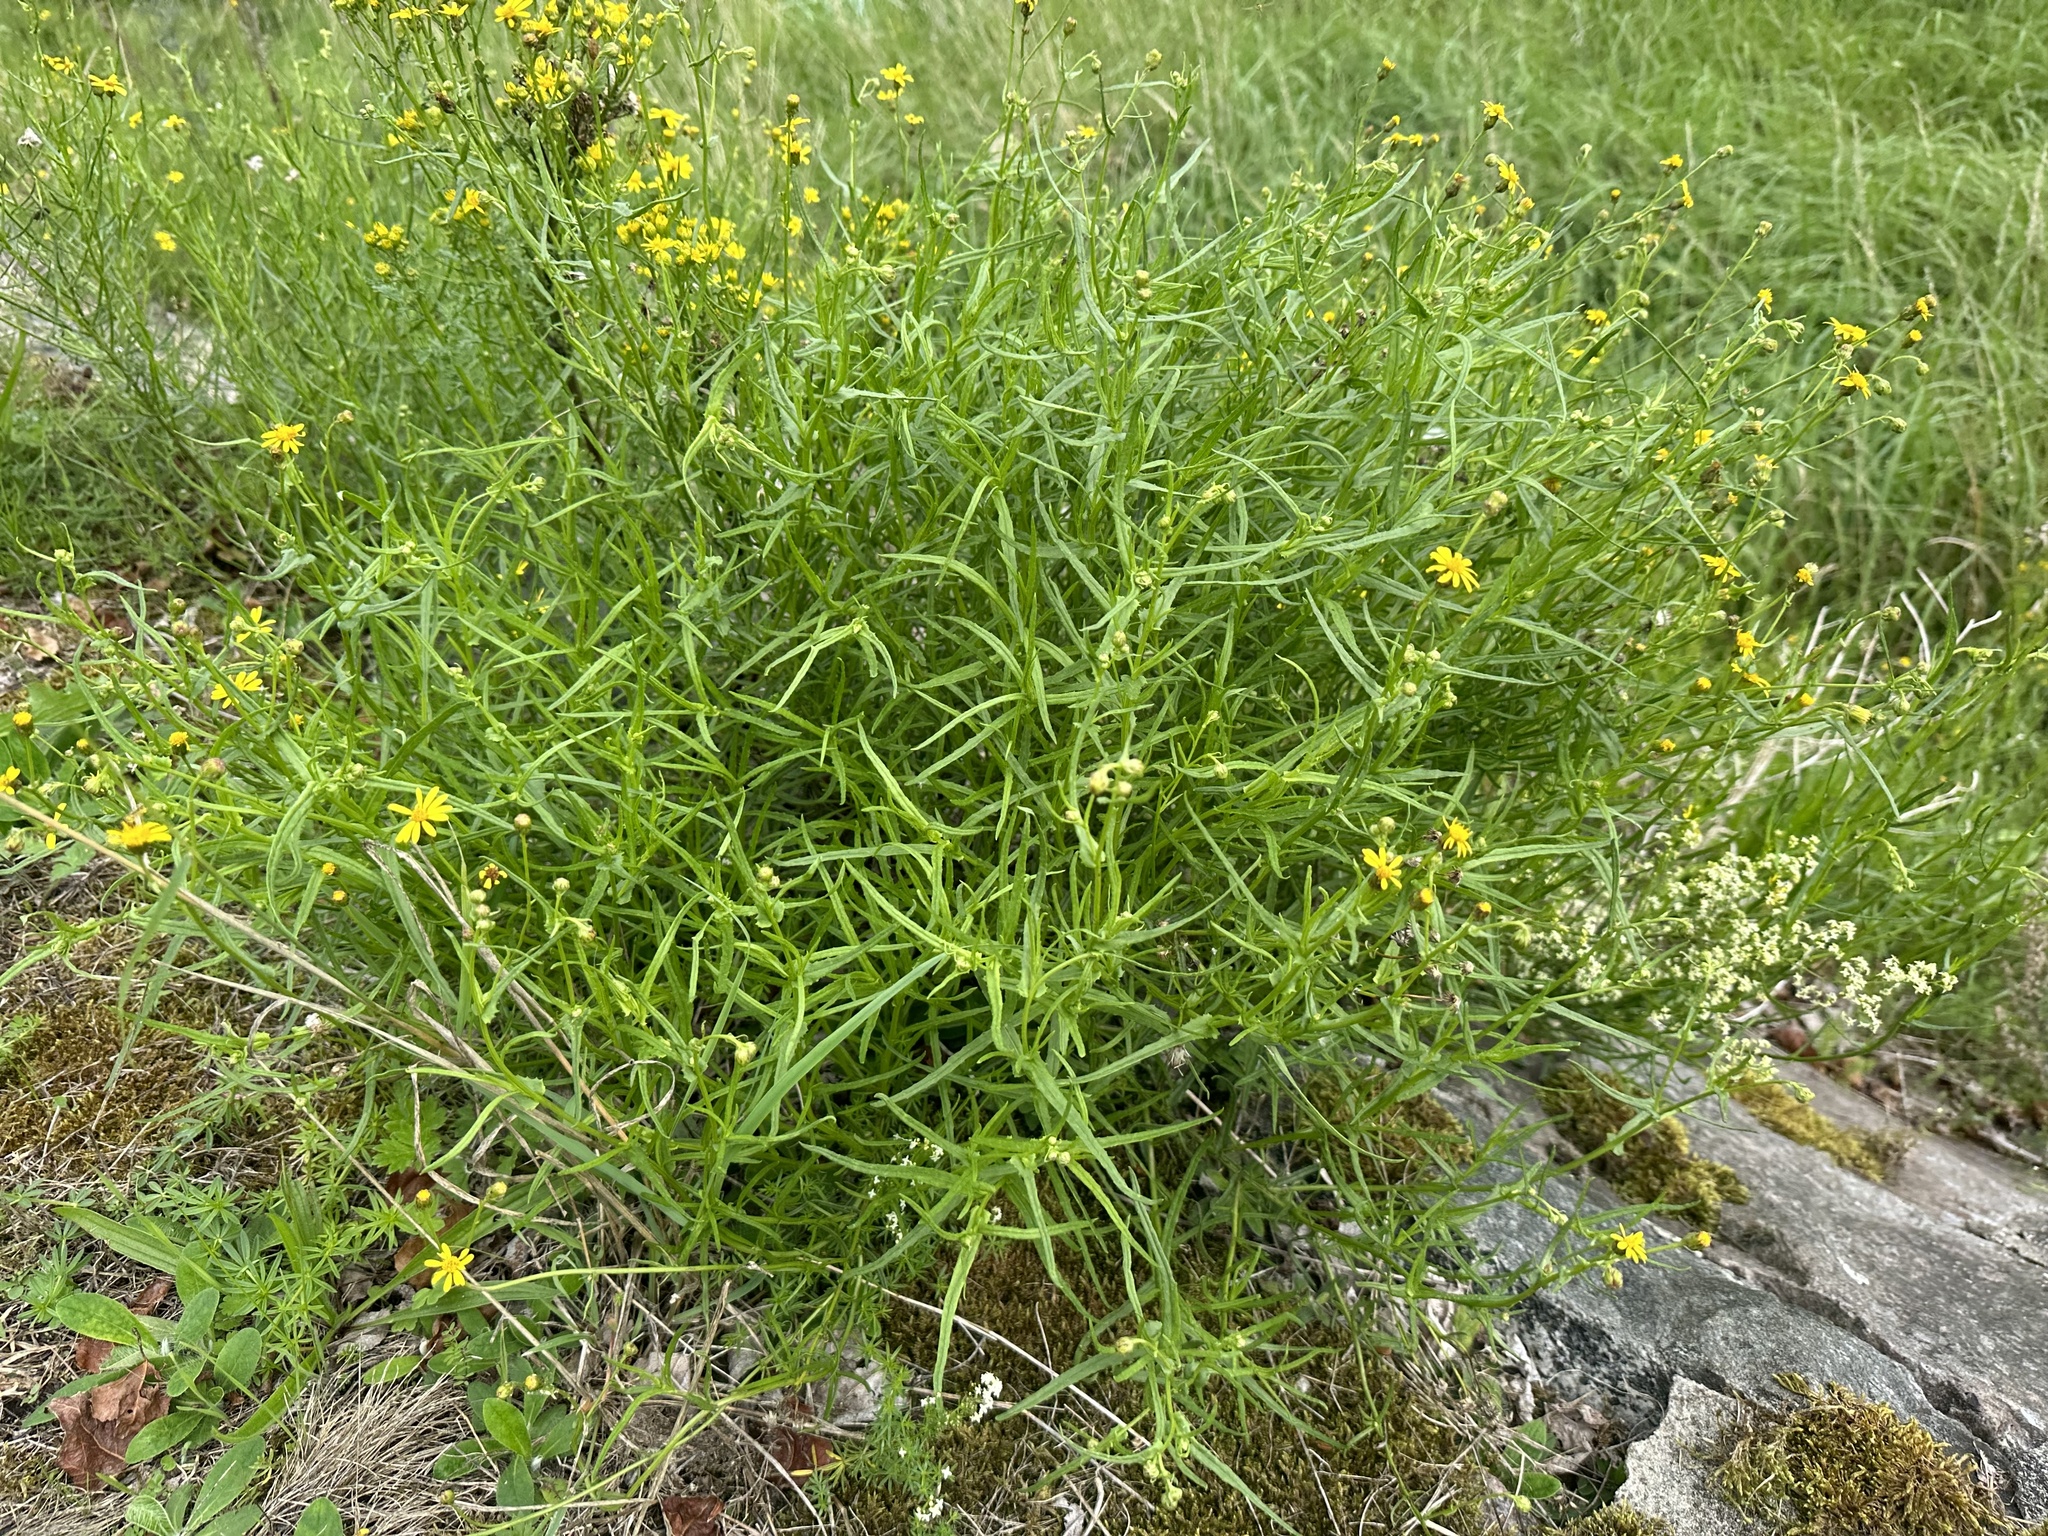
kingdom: Plantae
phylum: Tracheophyta
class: Magnoliopsida
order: Asterales
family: Asteraceae
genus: Senecio
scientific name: Senecio inaequidens
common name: Narrow-leaved ragwort
